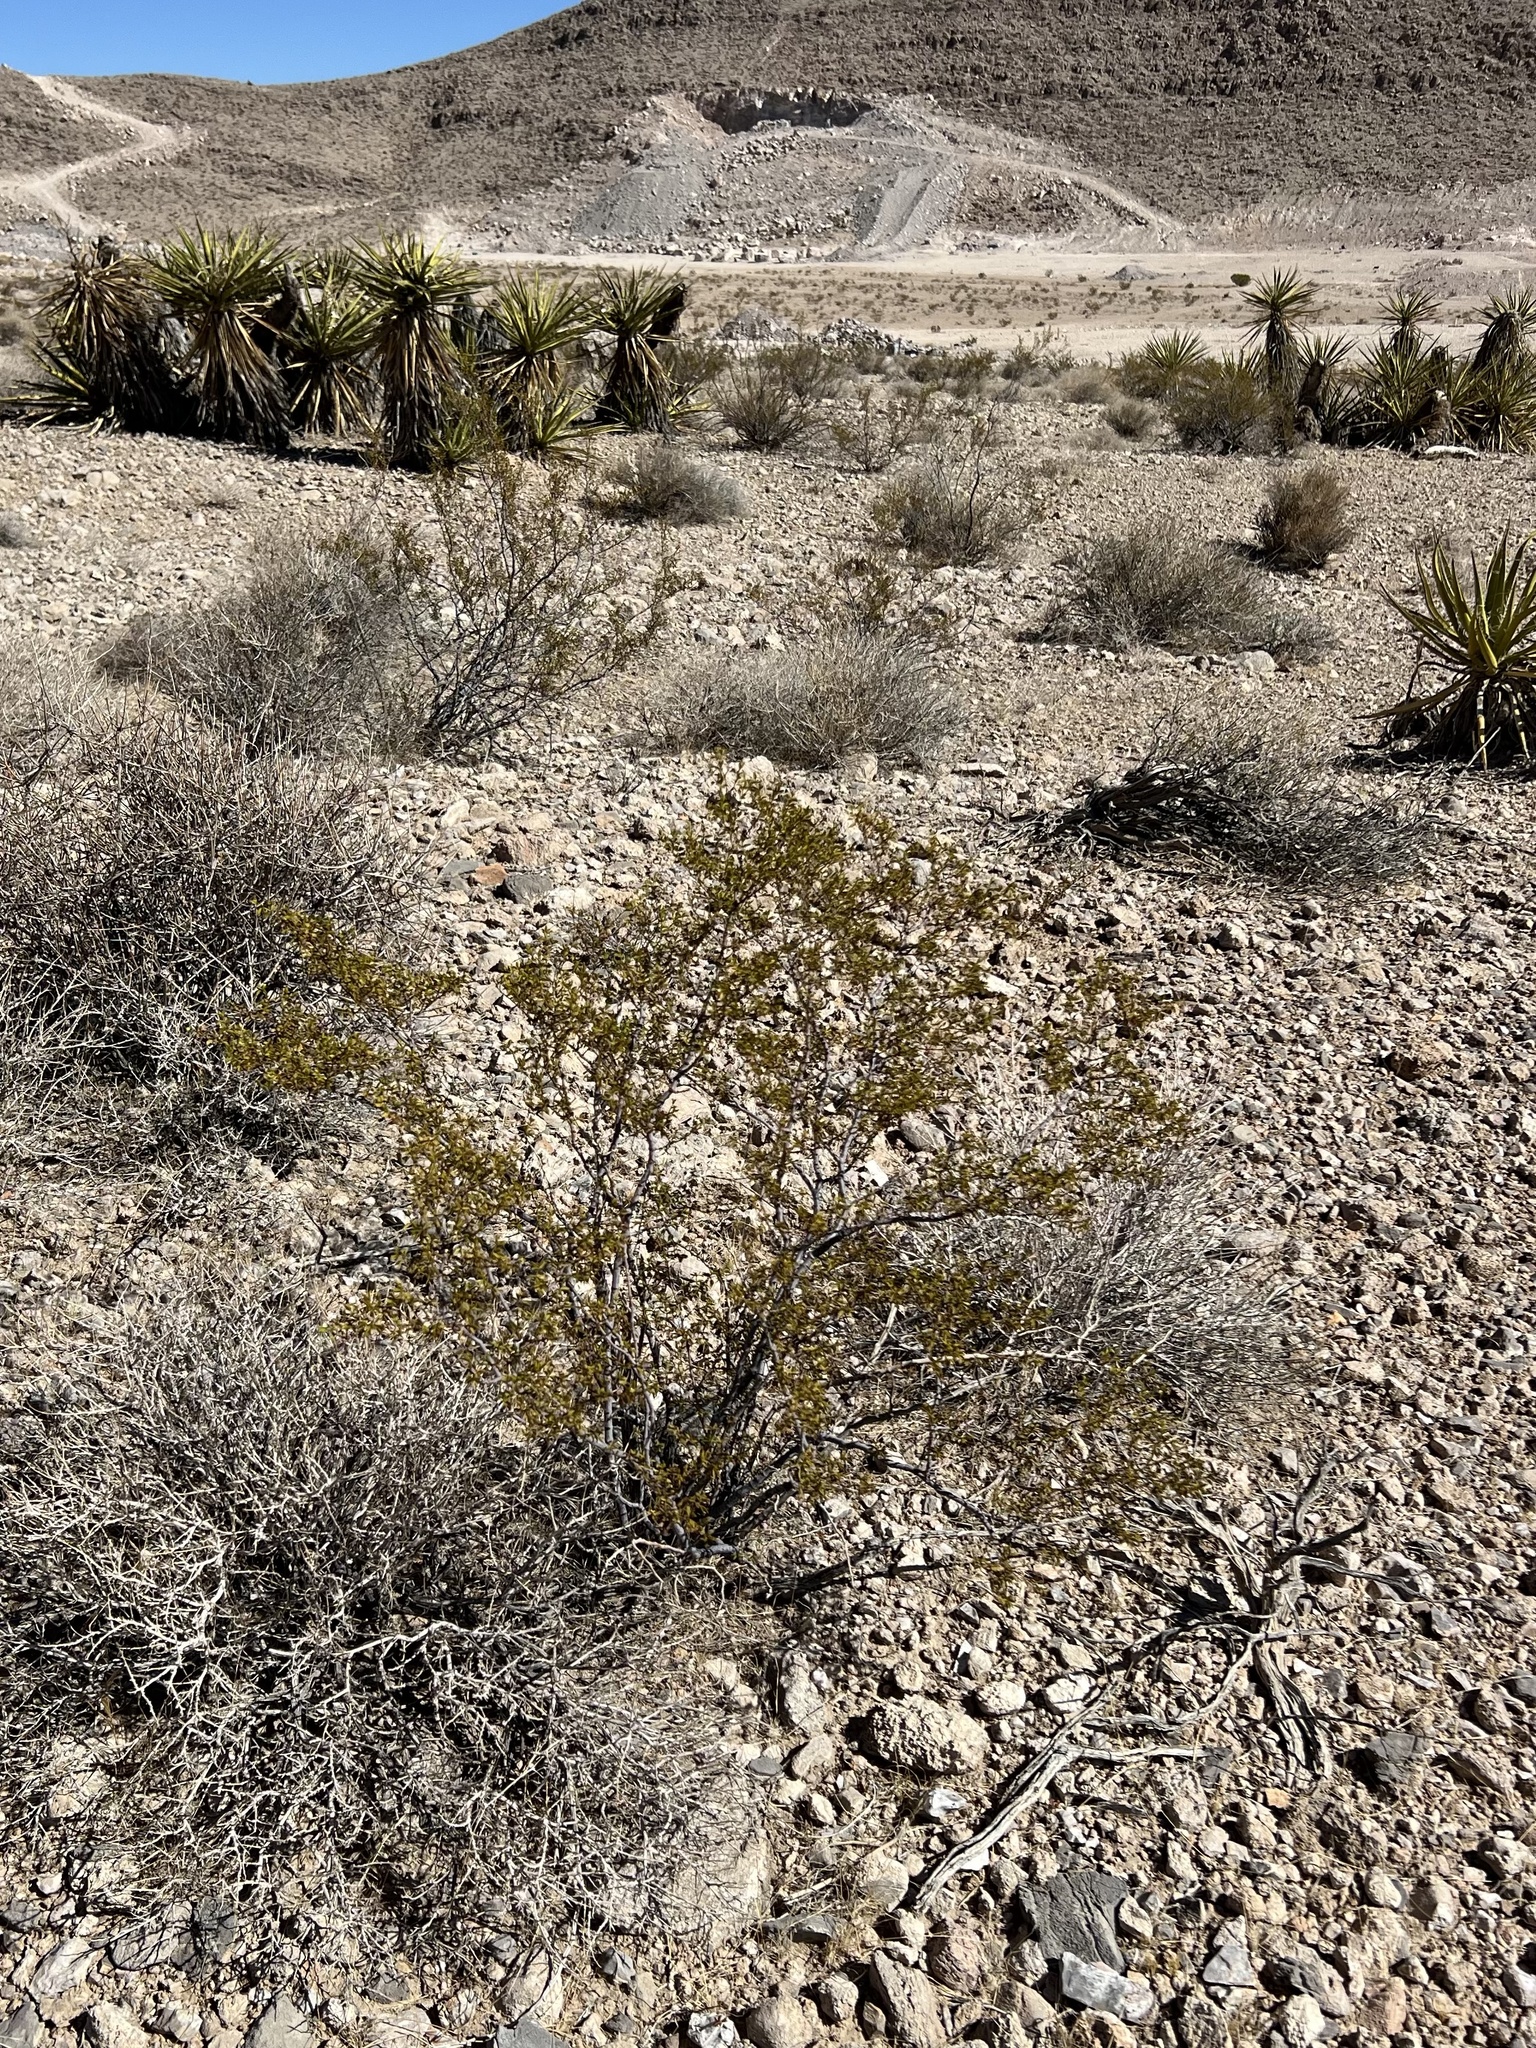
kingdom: Plantae
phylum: Tracheophyta
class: Magnoliopsida
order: Zygophyllales
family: Zygophyllaceae
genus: Larrea
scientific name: Larrea tridentata
